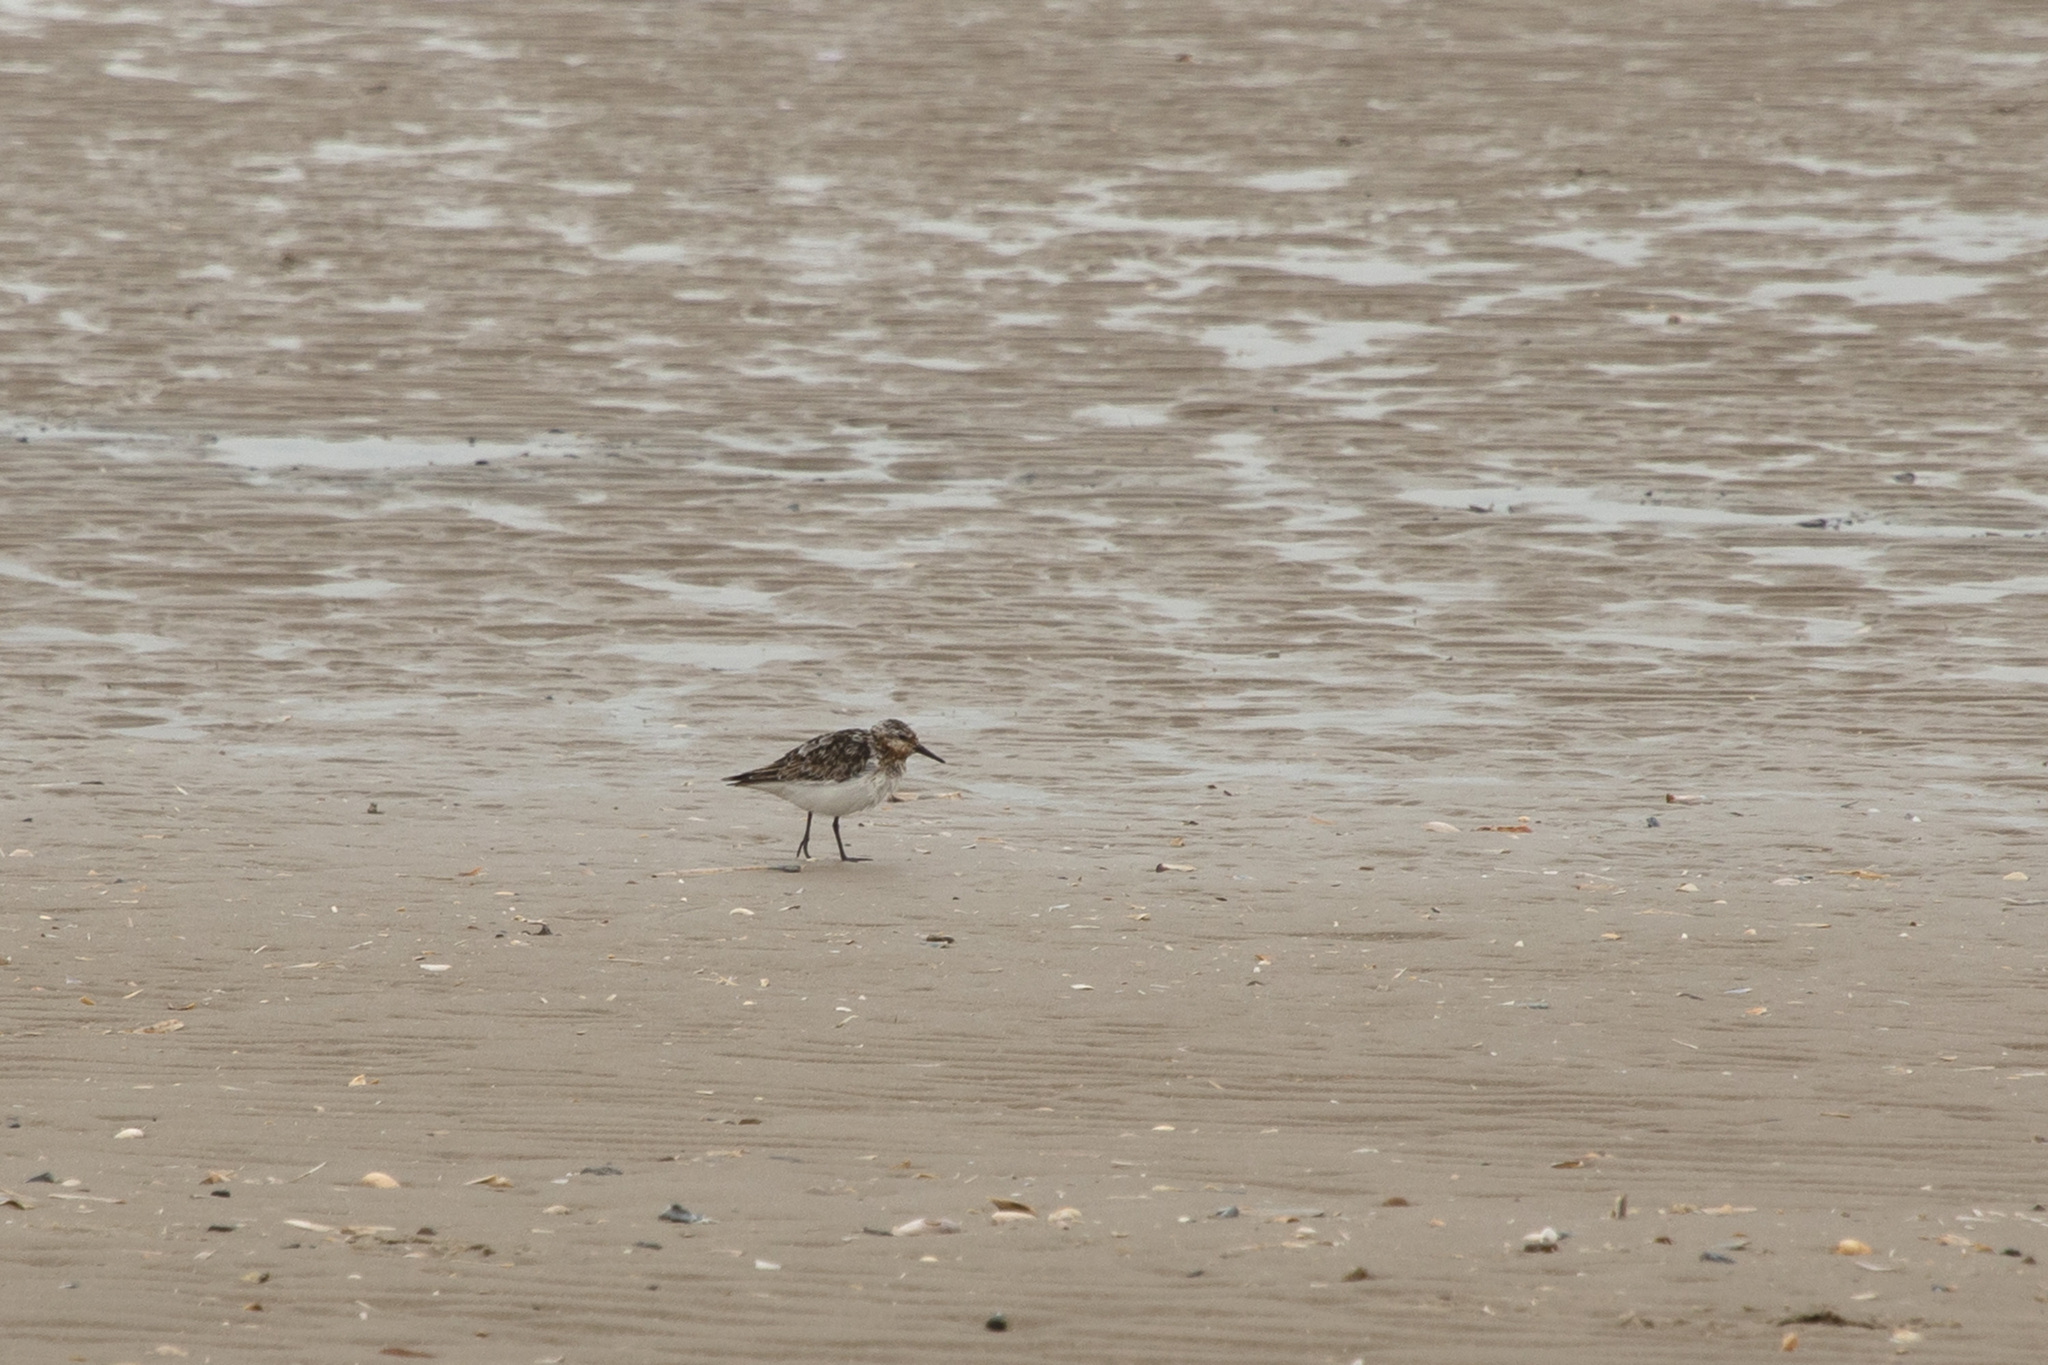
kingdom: Animalia
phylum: Chordata
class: Aves
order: Charadriiformes
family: Scolopacidae
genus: Calidris
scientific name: Calidris alba
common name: Sanderling
